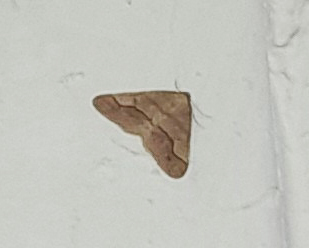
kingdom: Animalia
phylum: Arthropoda
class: Insecta
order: Lepidoptera
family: Geometridae
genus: Agriopis
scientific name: Agriopis marginaria
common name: Dotted border
